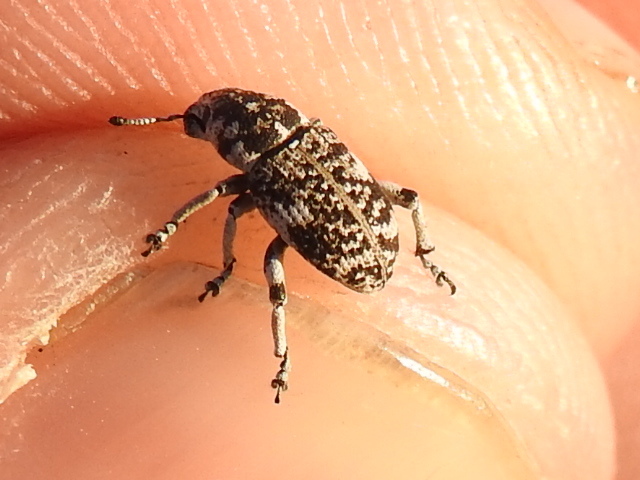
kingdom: Animalia
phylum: Arthropoda
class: Insecta
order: Coleoptera
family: Curculionidae
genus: Colecerus
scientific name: Colecerus marmoratus
